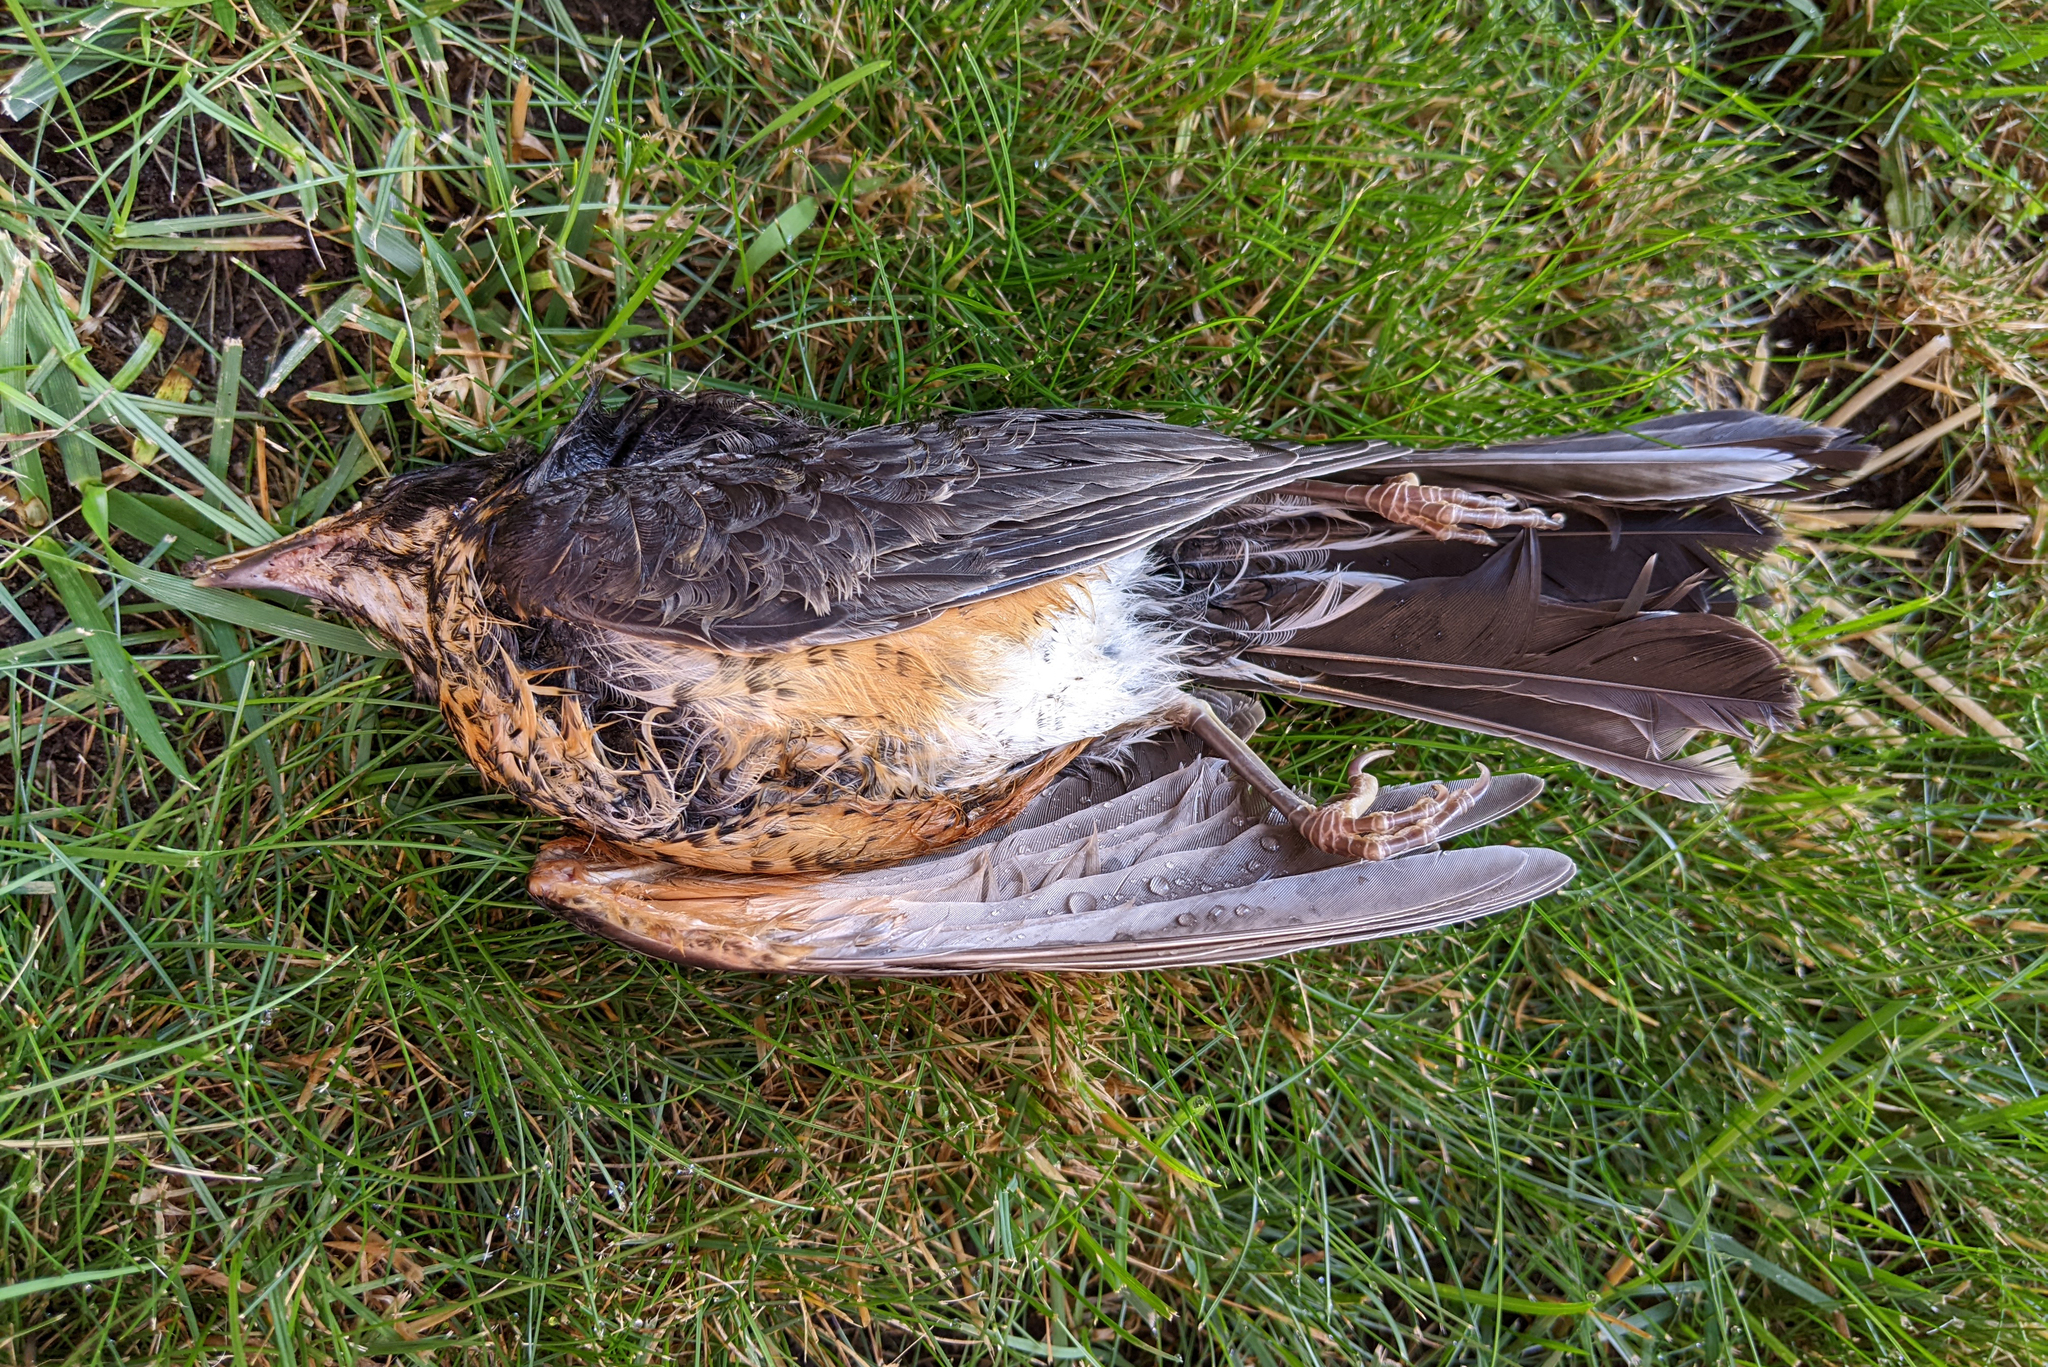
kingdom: Animalia
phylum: Chordata
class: Aves
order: Passeriformes
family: Turdidae
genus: Turdus
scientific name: Turdus migratorius
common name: American robin
